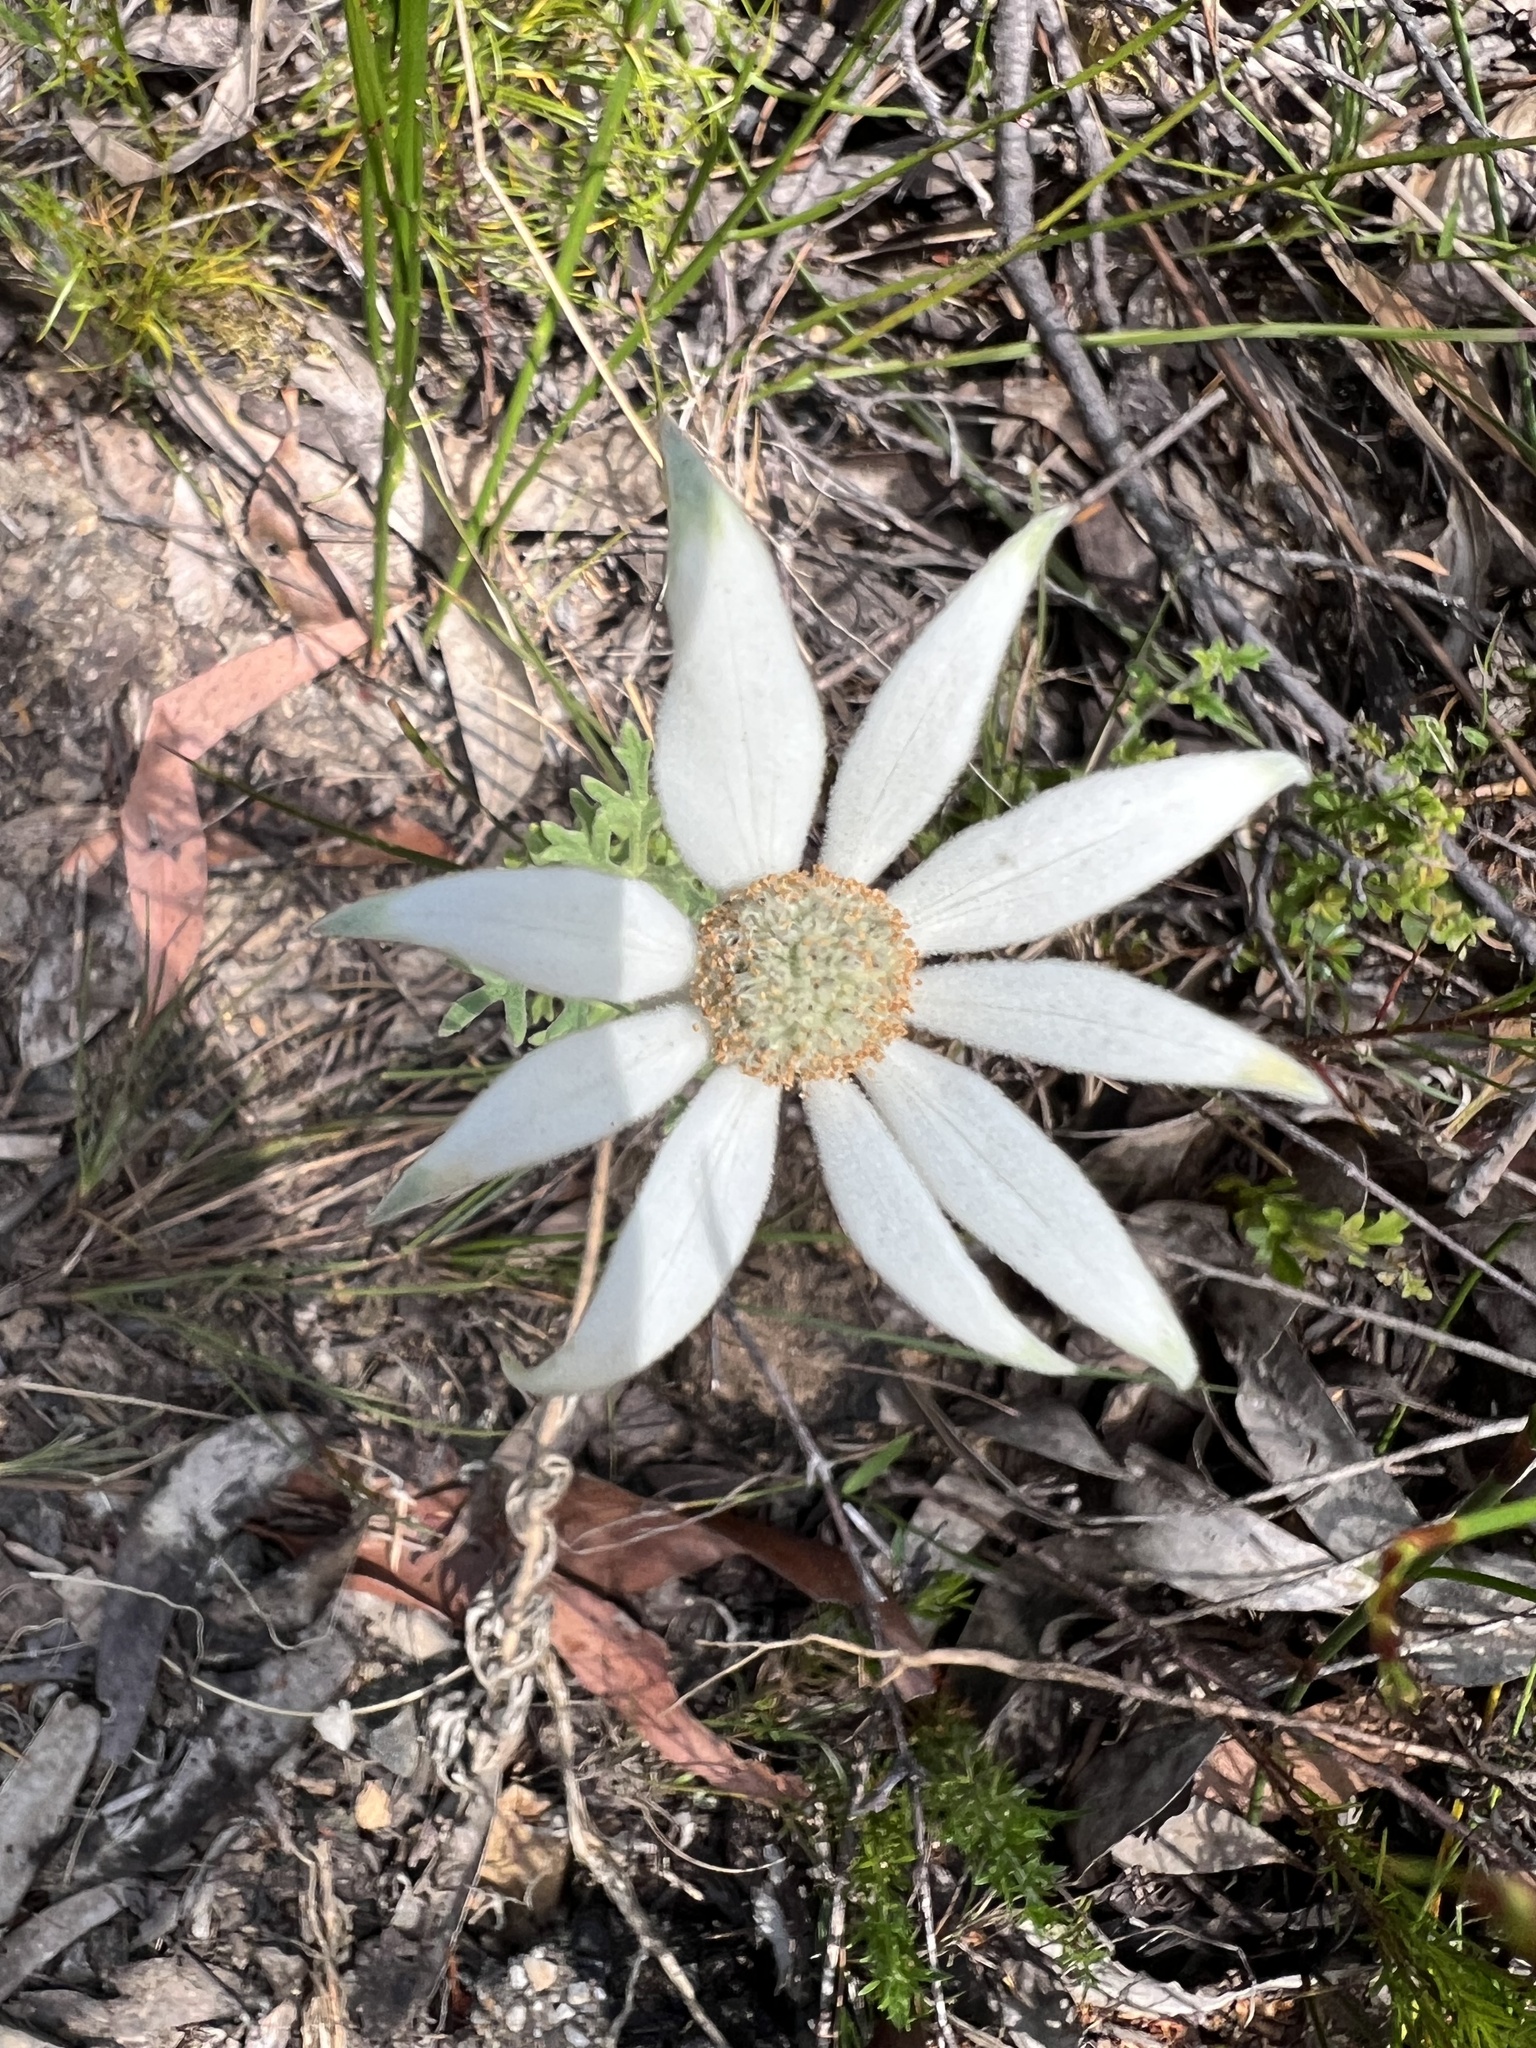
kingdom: Plantae
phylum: Tracheophyta
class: Magnoliopsida
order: Apiales
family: Apiaceae
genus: Actinotus
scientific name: Actinotus helianthi
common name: Flannel-flower
